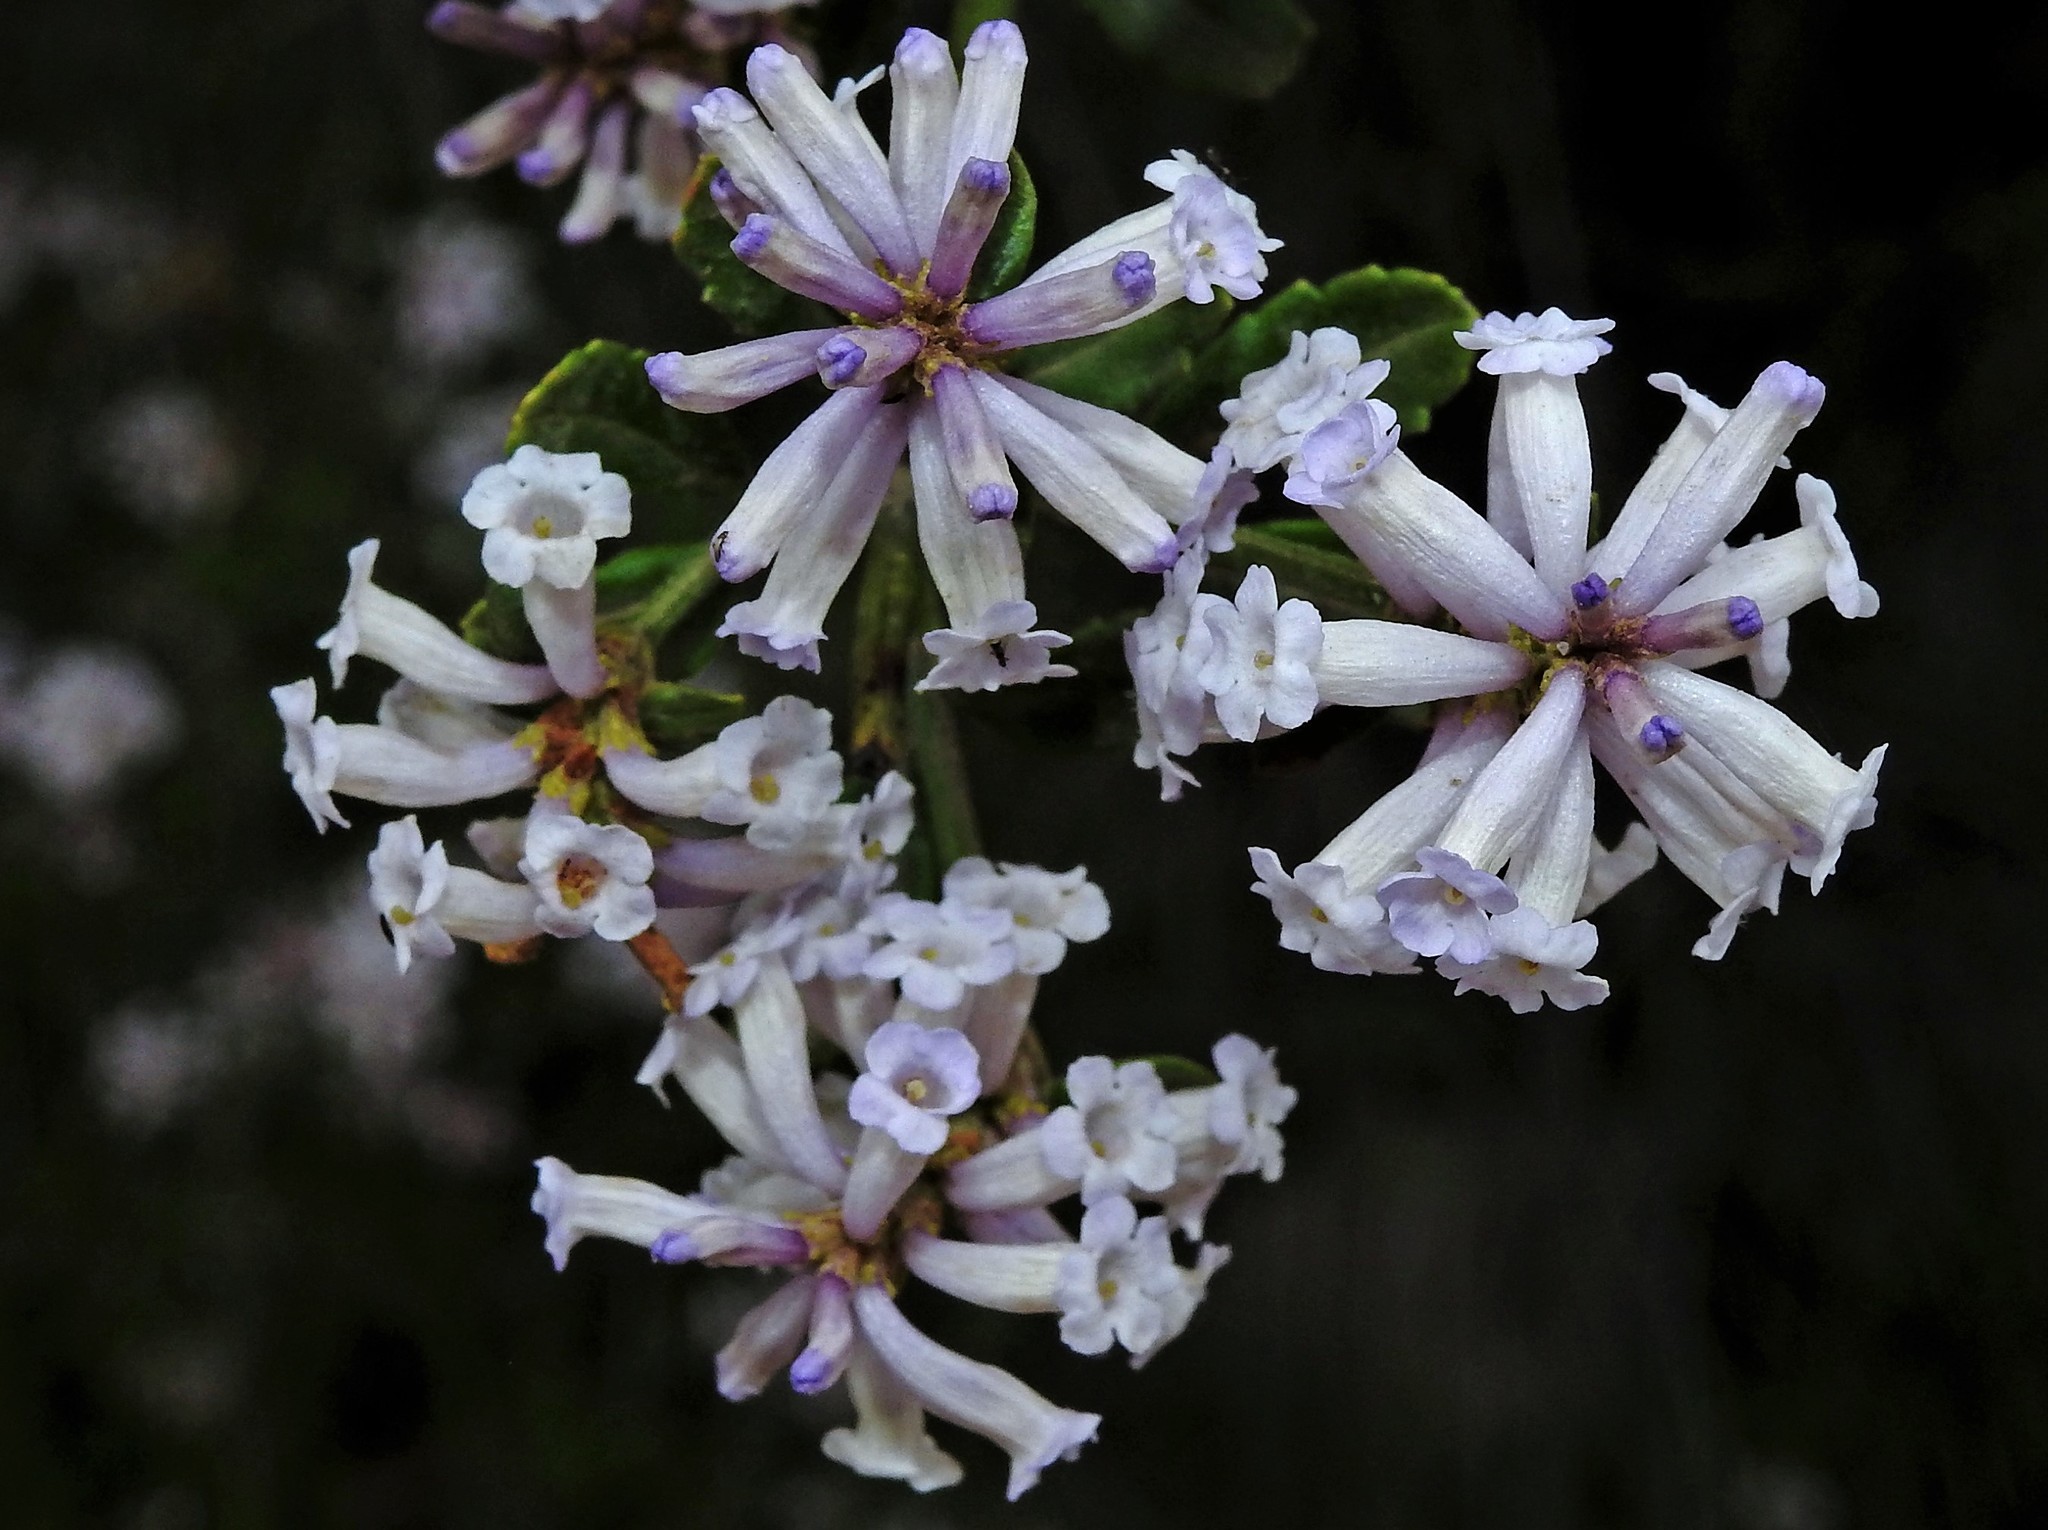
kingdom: Plantae
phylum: Tracheophyta
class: Magnoliopsida
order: Lamiales
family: Verbenaceae
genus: Diostea
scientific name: Diostea juncea
